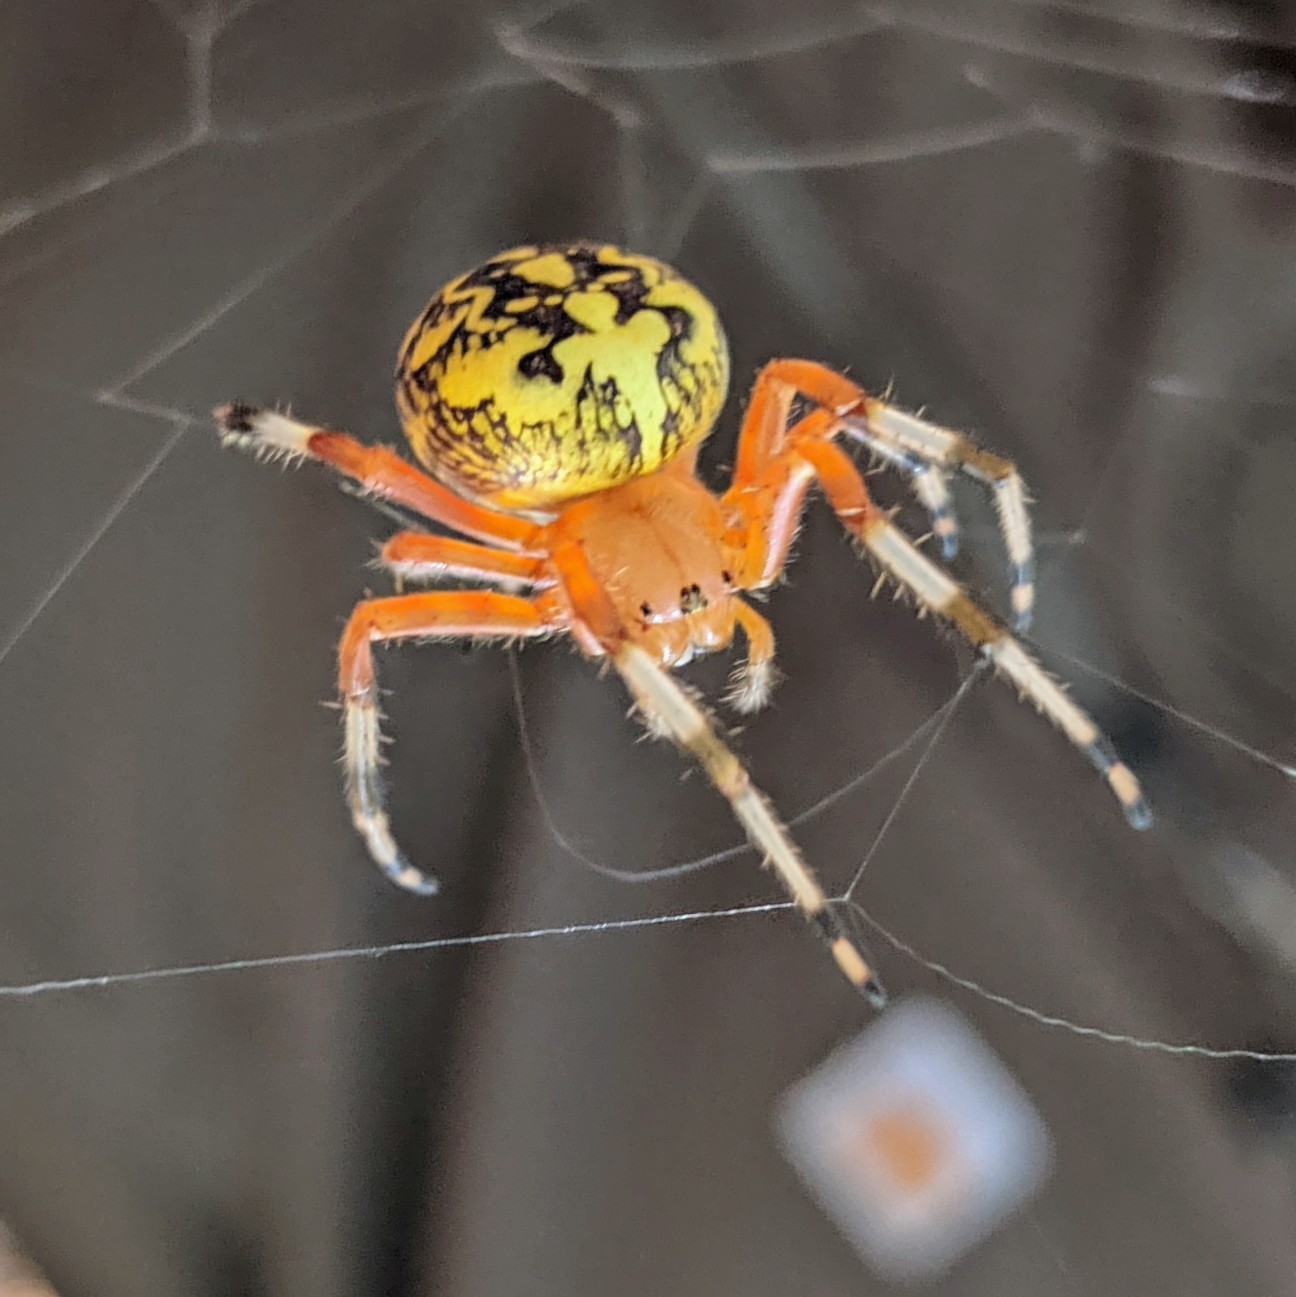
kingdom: Animalia
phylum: Arthropoda
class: Arachnida
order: Araneae
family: Araneidae
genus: Araneus
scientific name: Araneus marmoreus
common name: Marbled orbweaver
